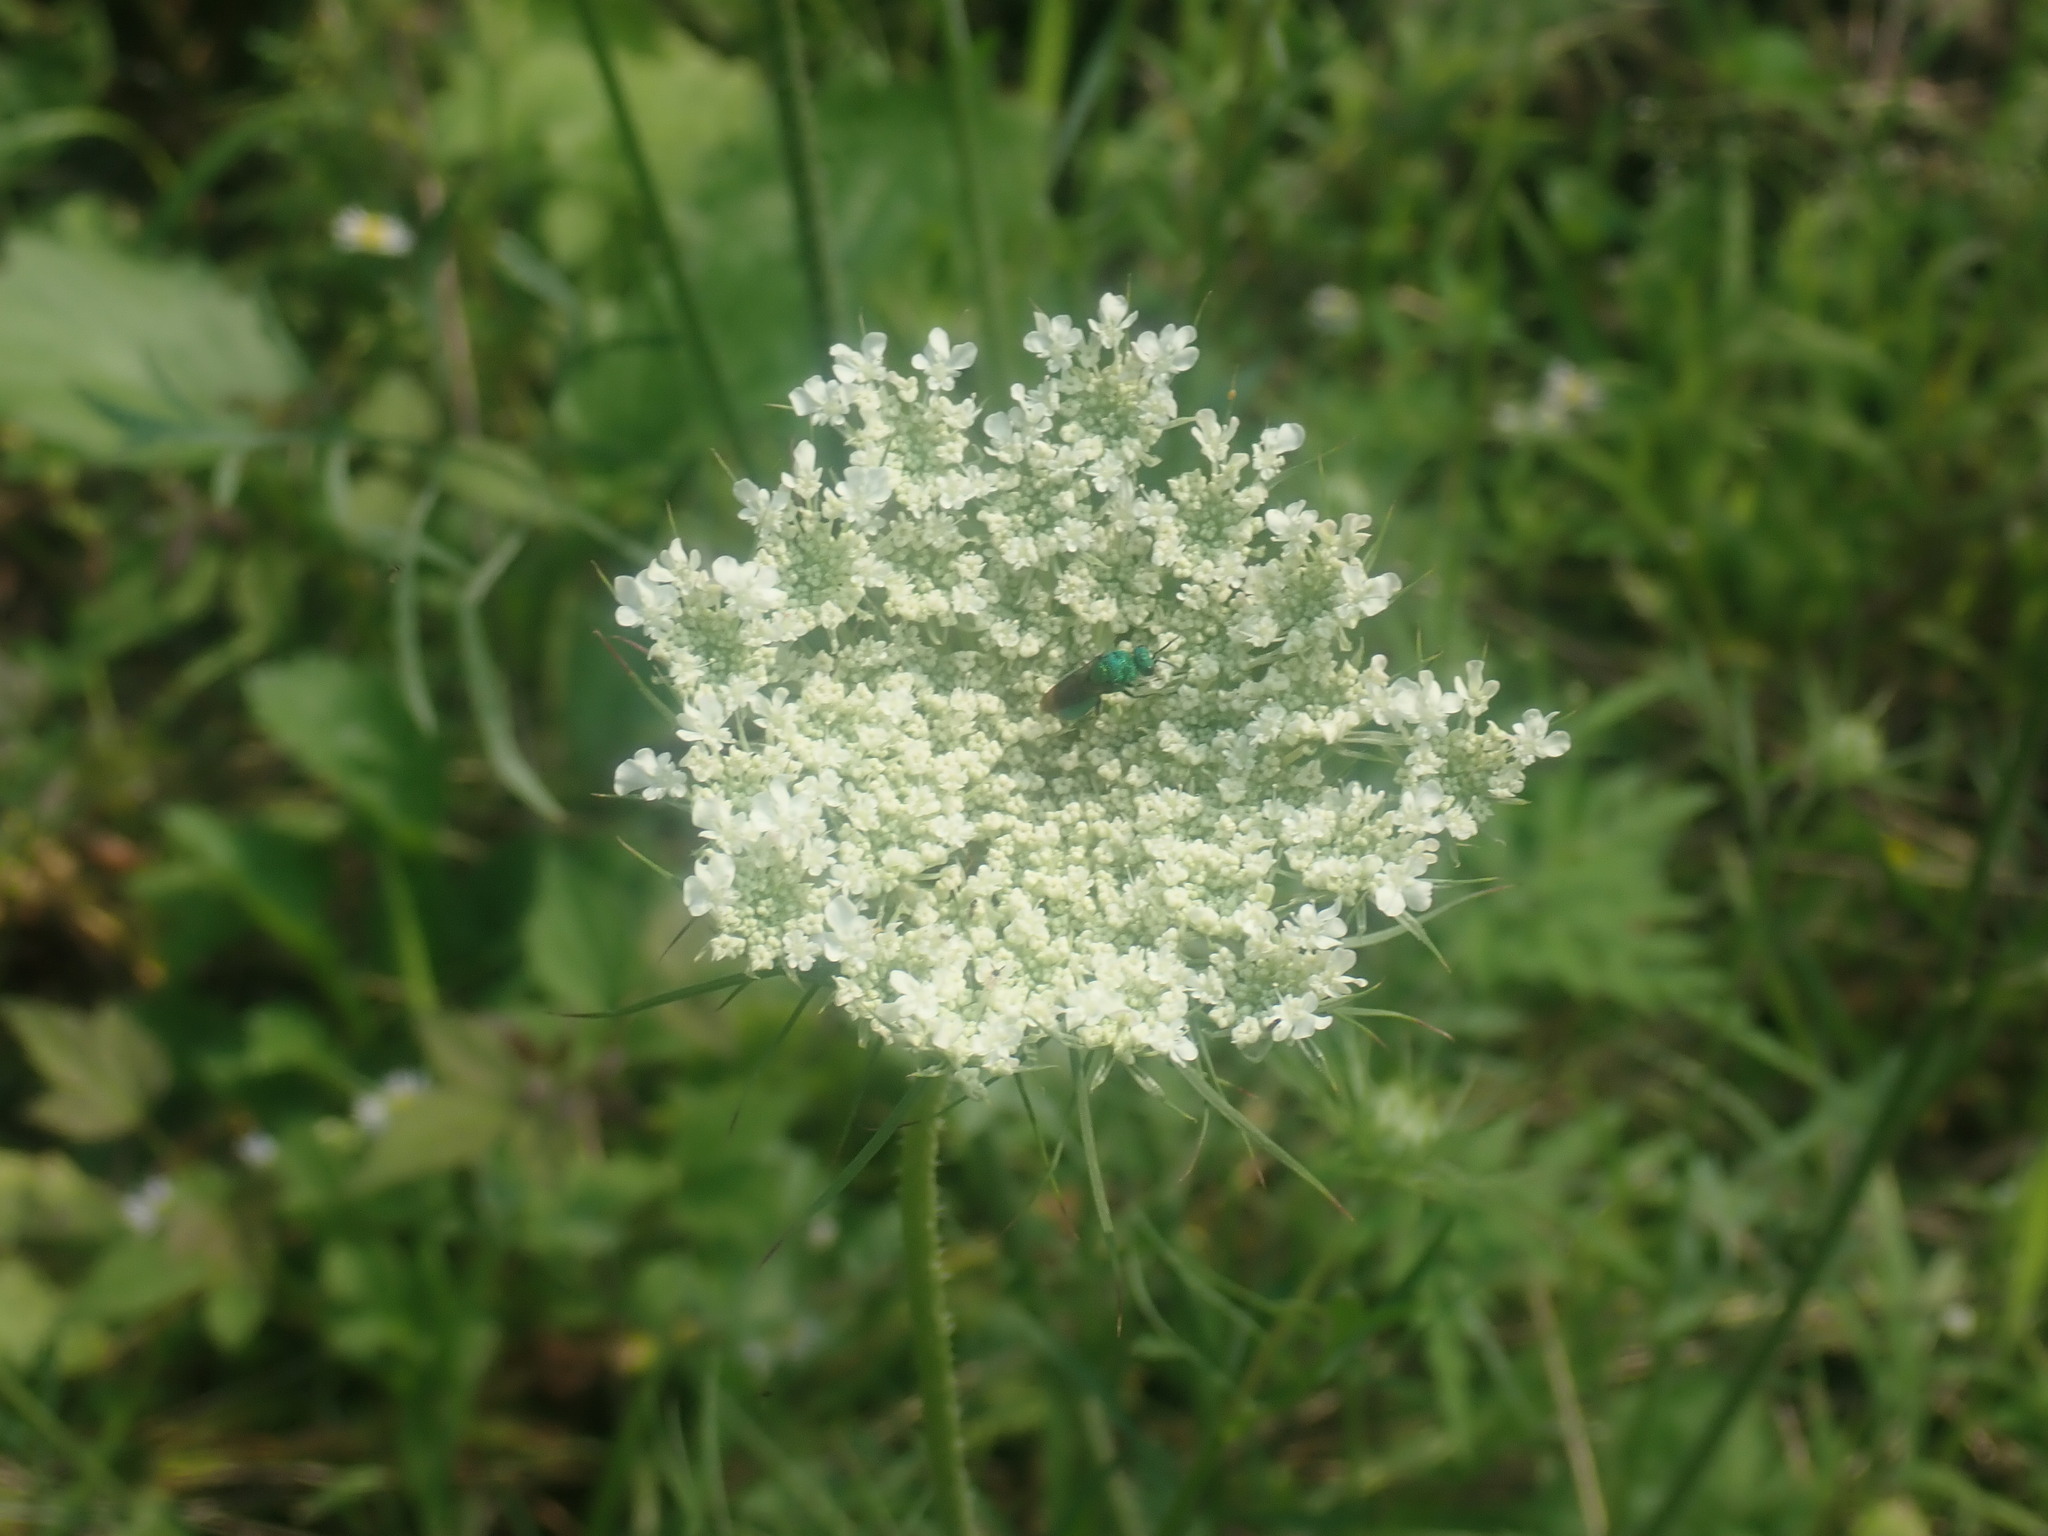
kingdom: Plantae
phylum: Tracheophyta
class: Magnoliopsida
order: Apiales
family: Apiaceae
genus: Daucus
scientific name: Daucus carota
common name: Wild carrot
